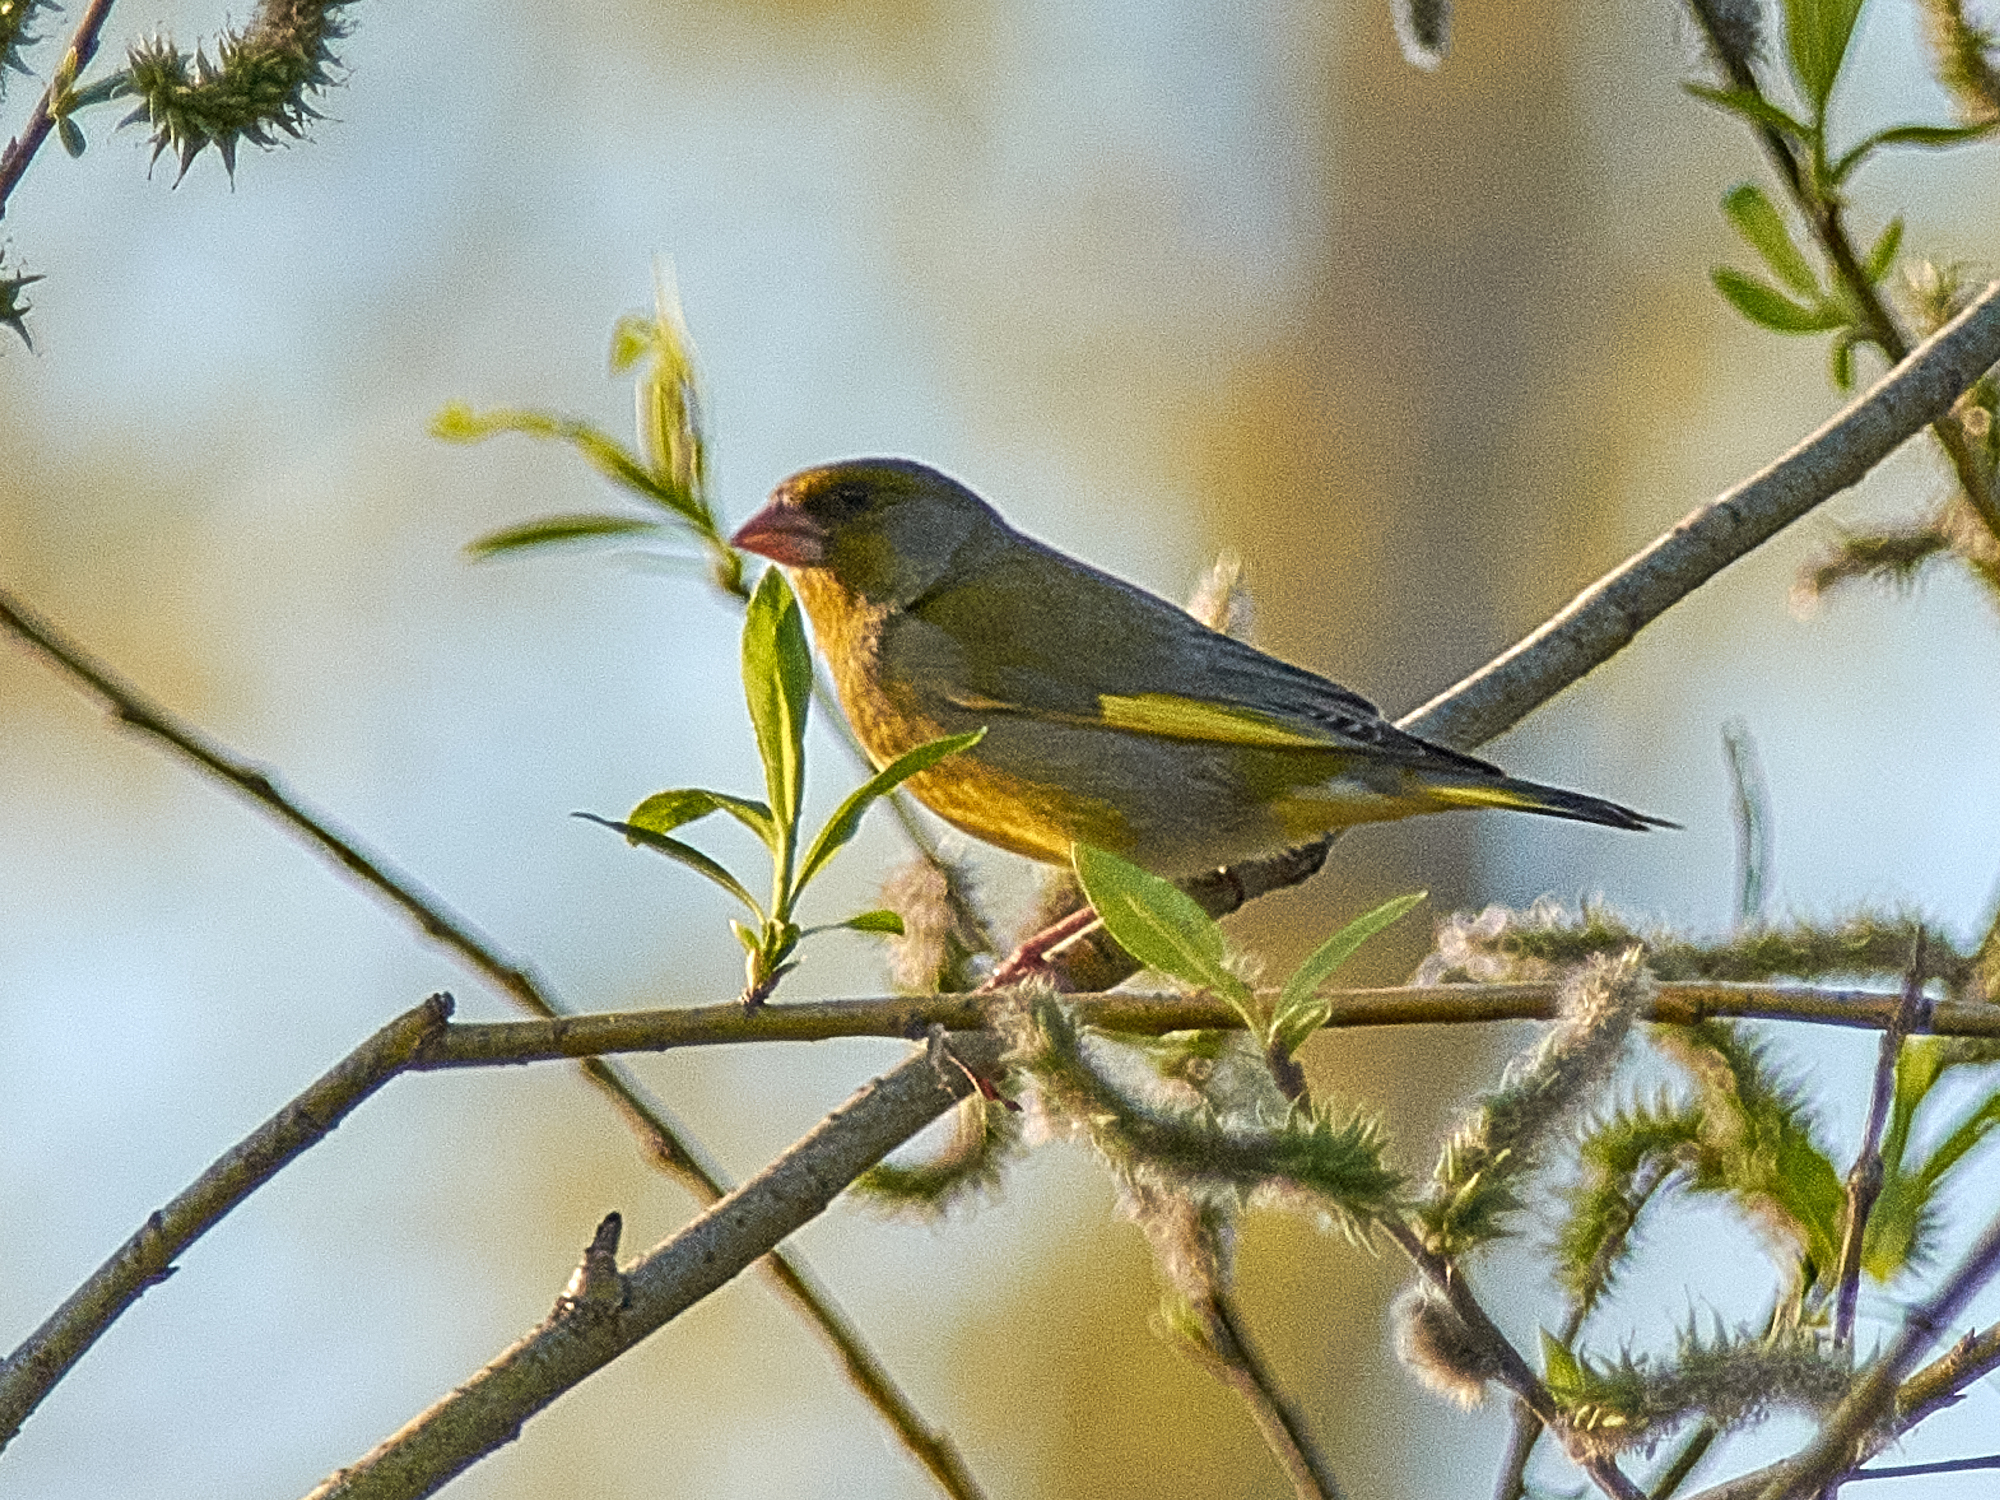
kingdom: Plantae
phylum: Tracheophyta
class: Liliopsida
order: Poales
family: Poaceae
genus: Chloris
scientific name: Chloris chloris
